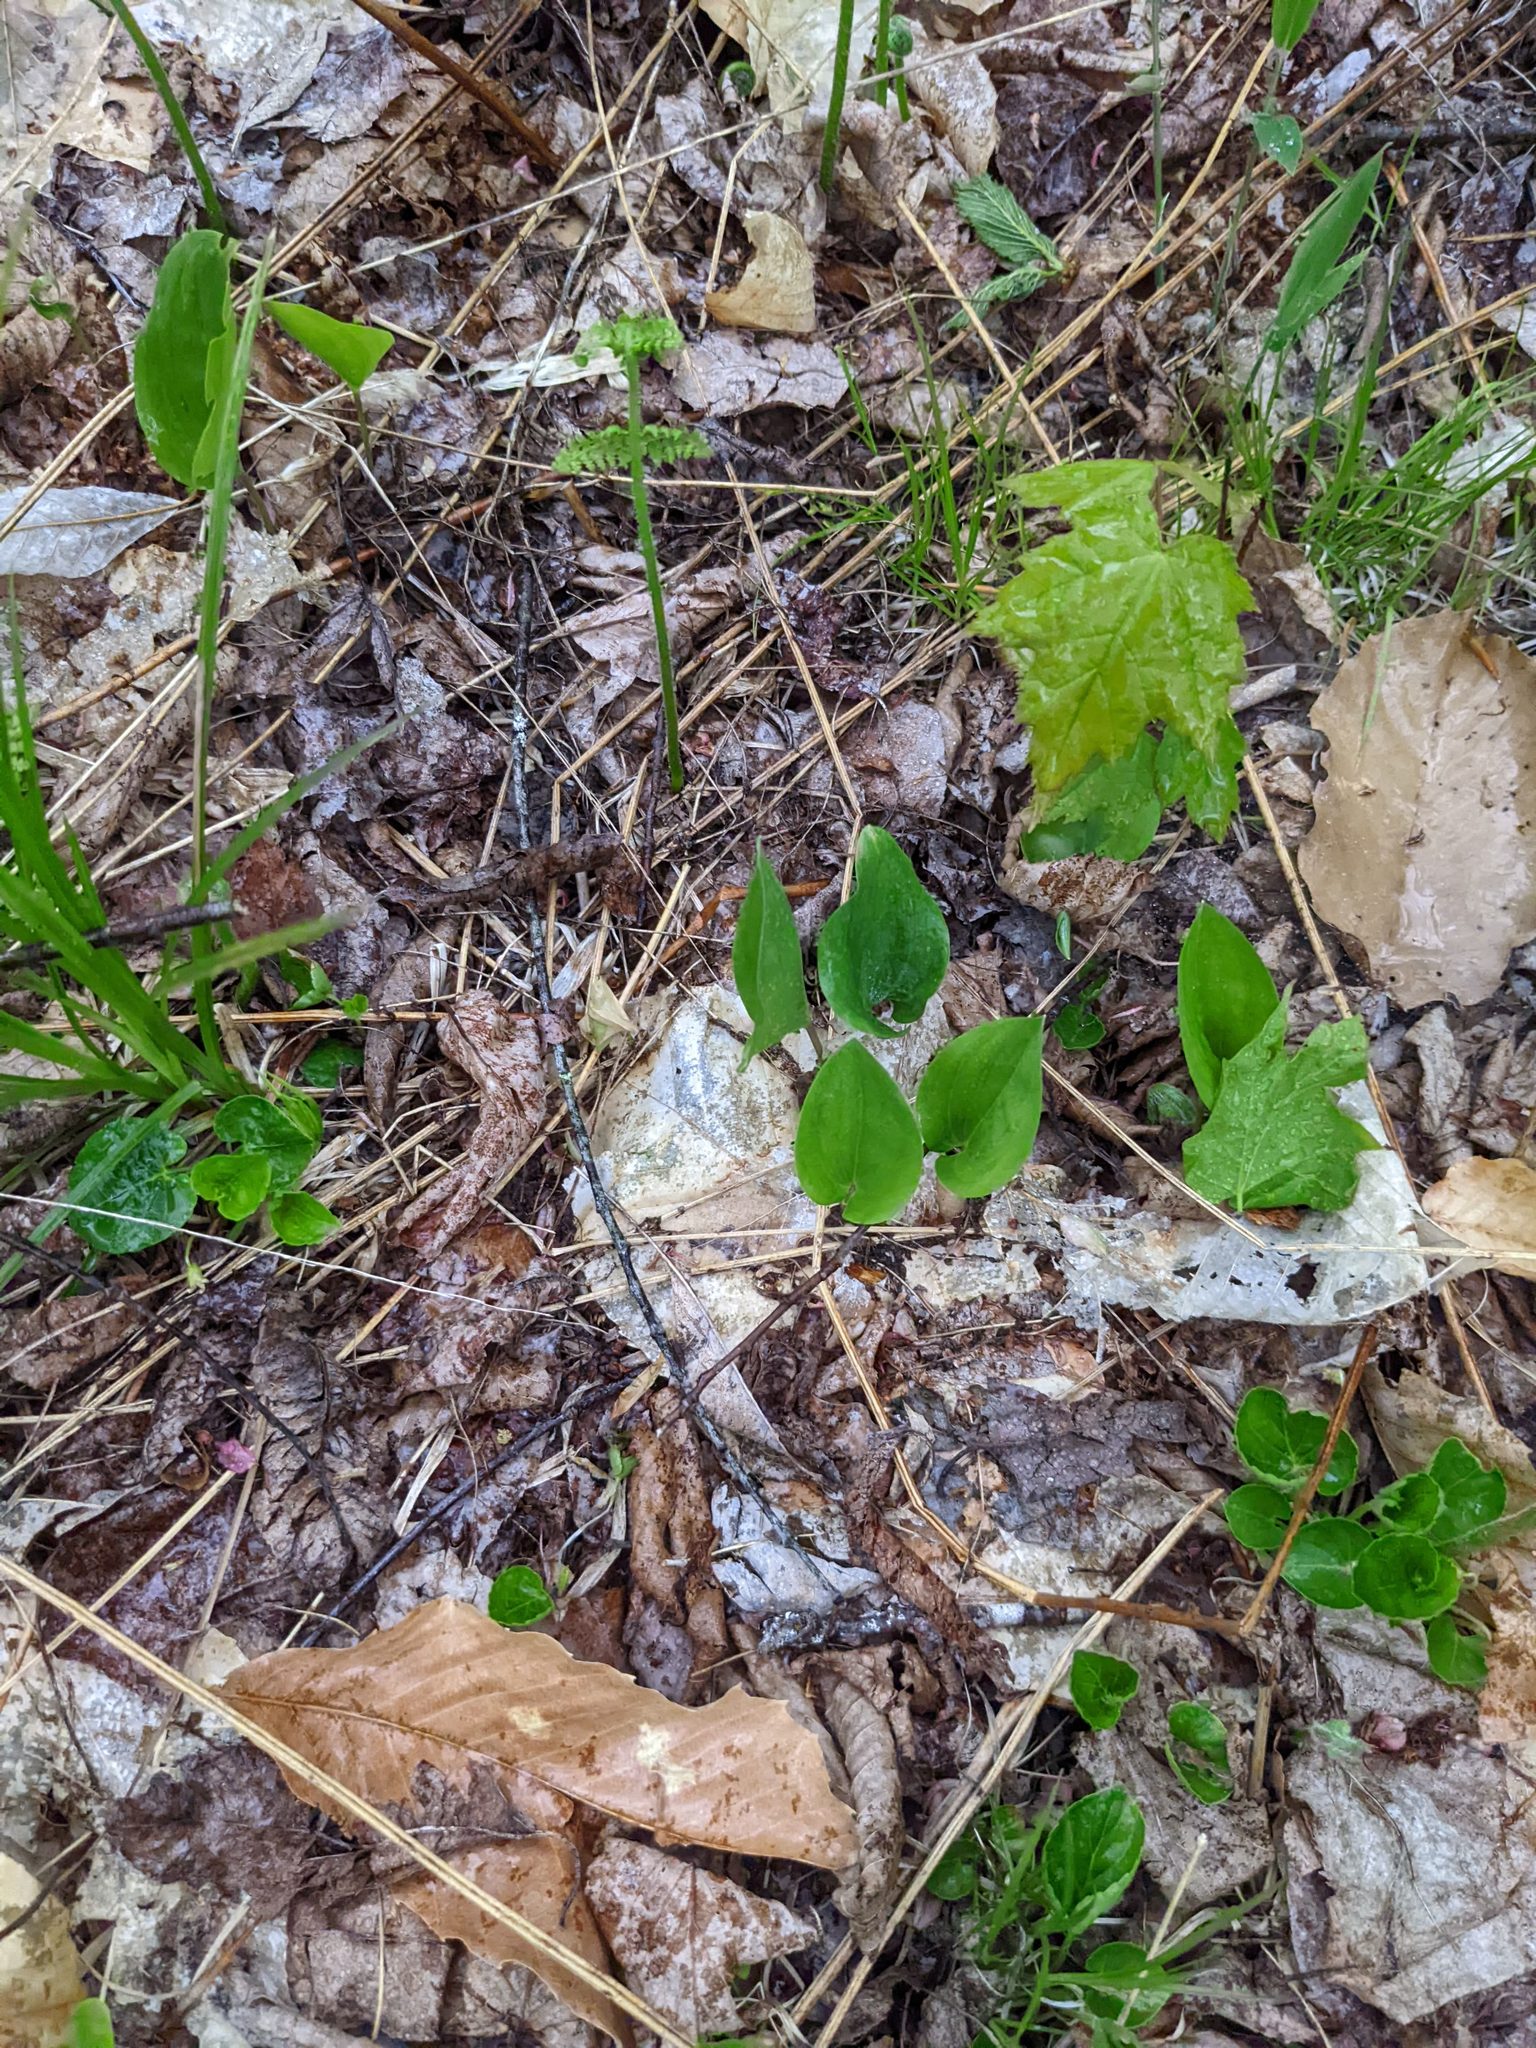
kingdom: Plantae
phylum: Tracheophyta
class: Liliopsida
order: Asparagales
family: Asparagaceae
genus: Maianthemum
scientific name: Maianthemum canadense
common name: False lily-of-the-valley
